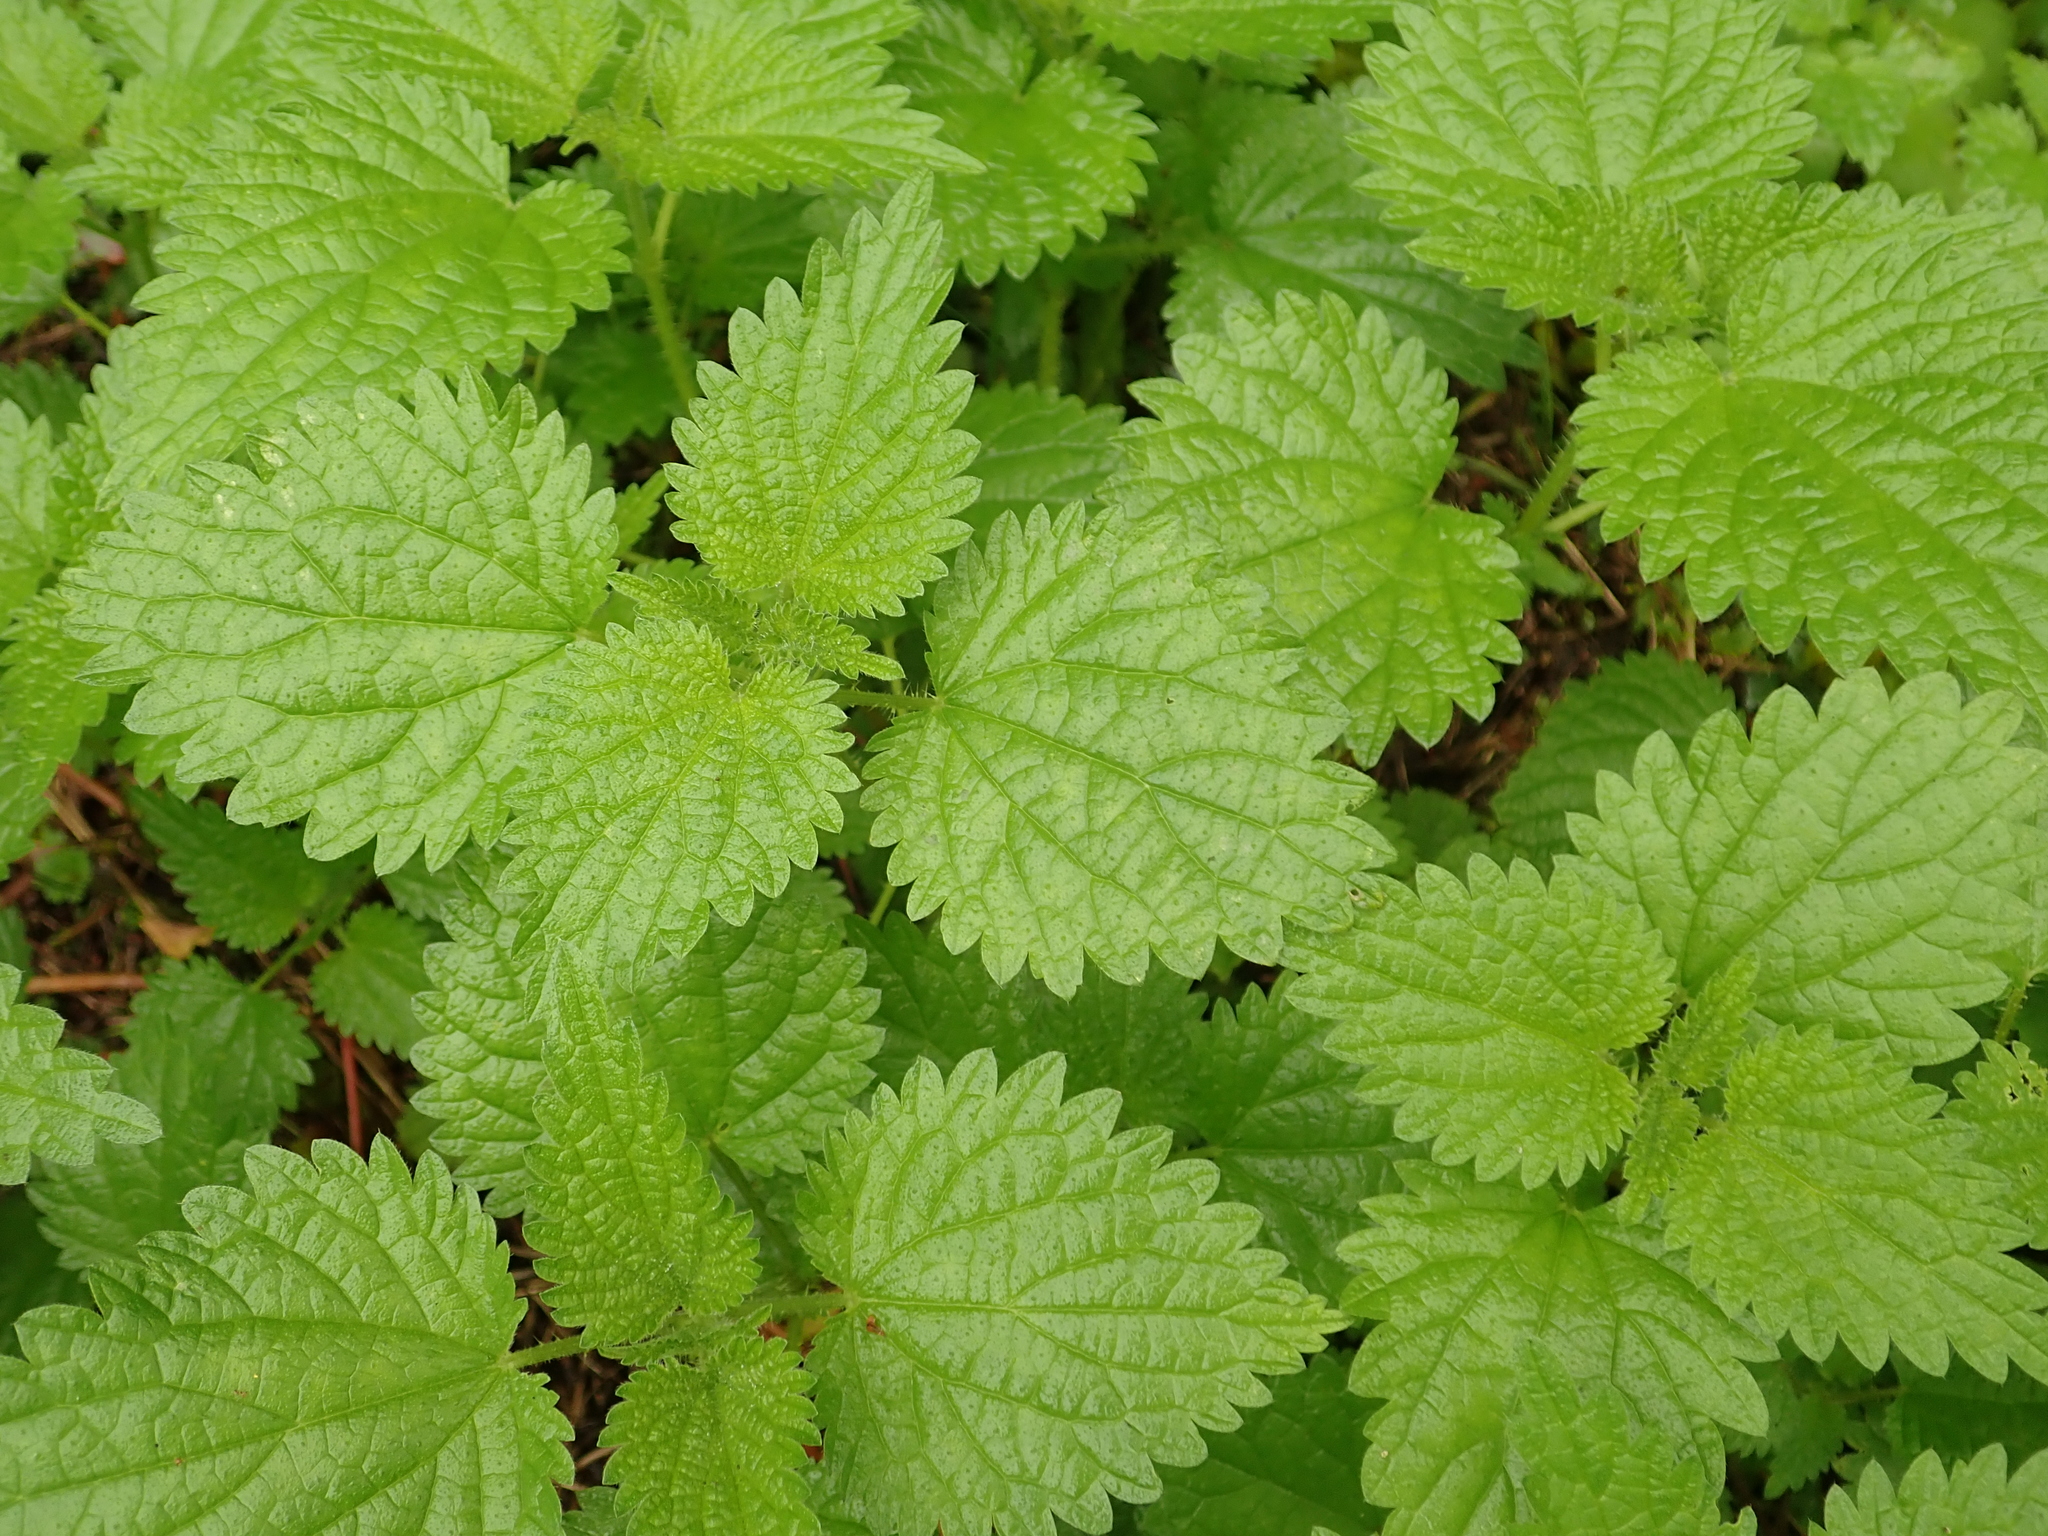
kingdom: Plantae
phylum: Tracheophyta
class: Magnoliopsida
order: Rosales
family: Urticaceae
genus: Urtica
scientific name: Urtica dioica
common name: Common nettle
